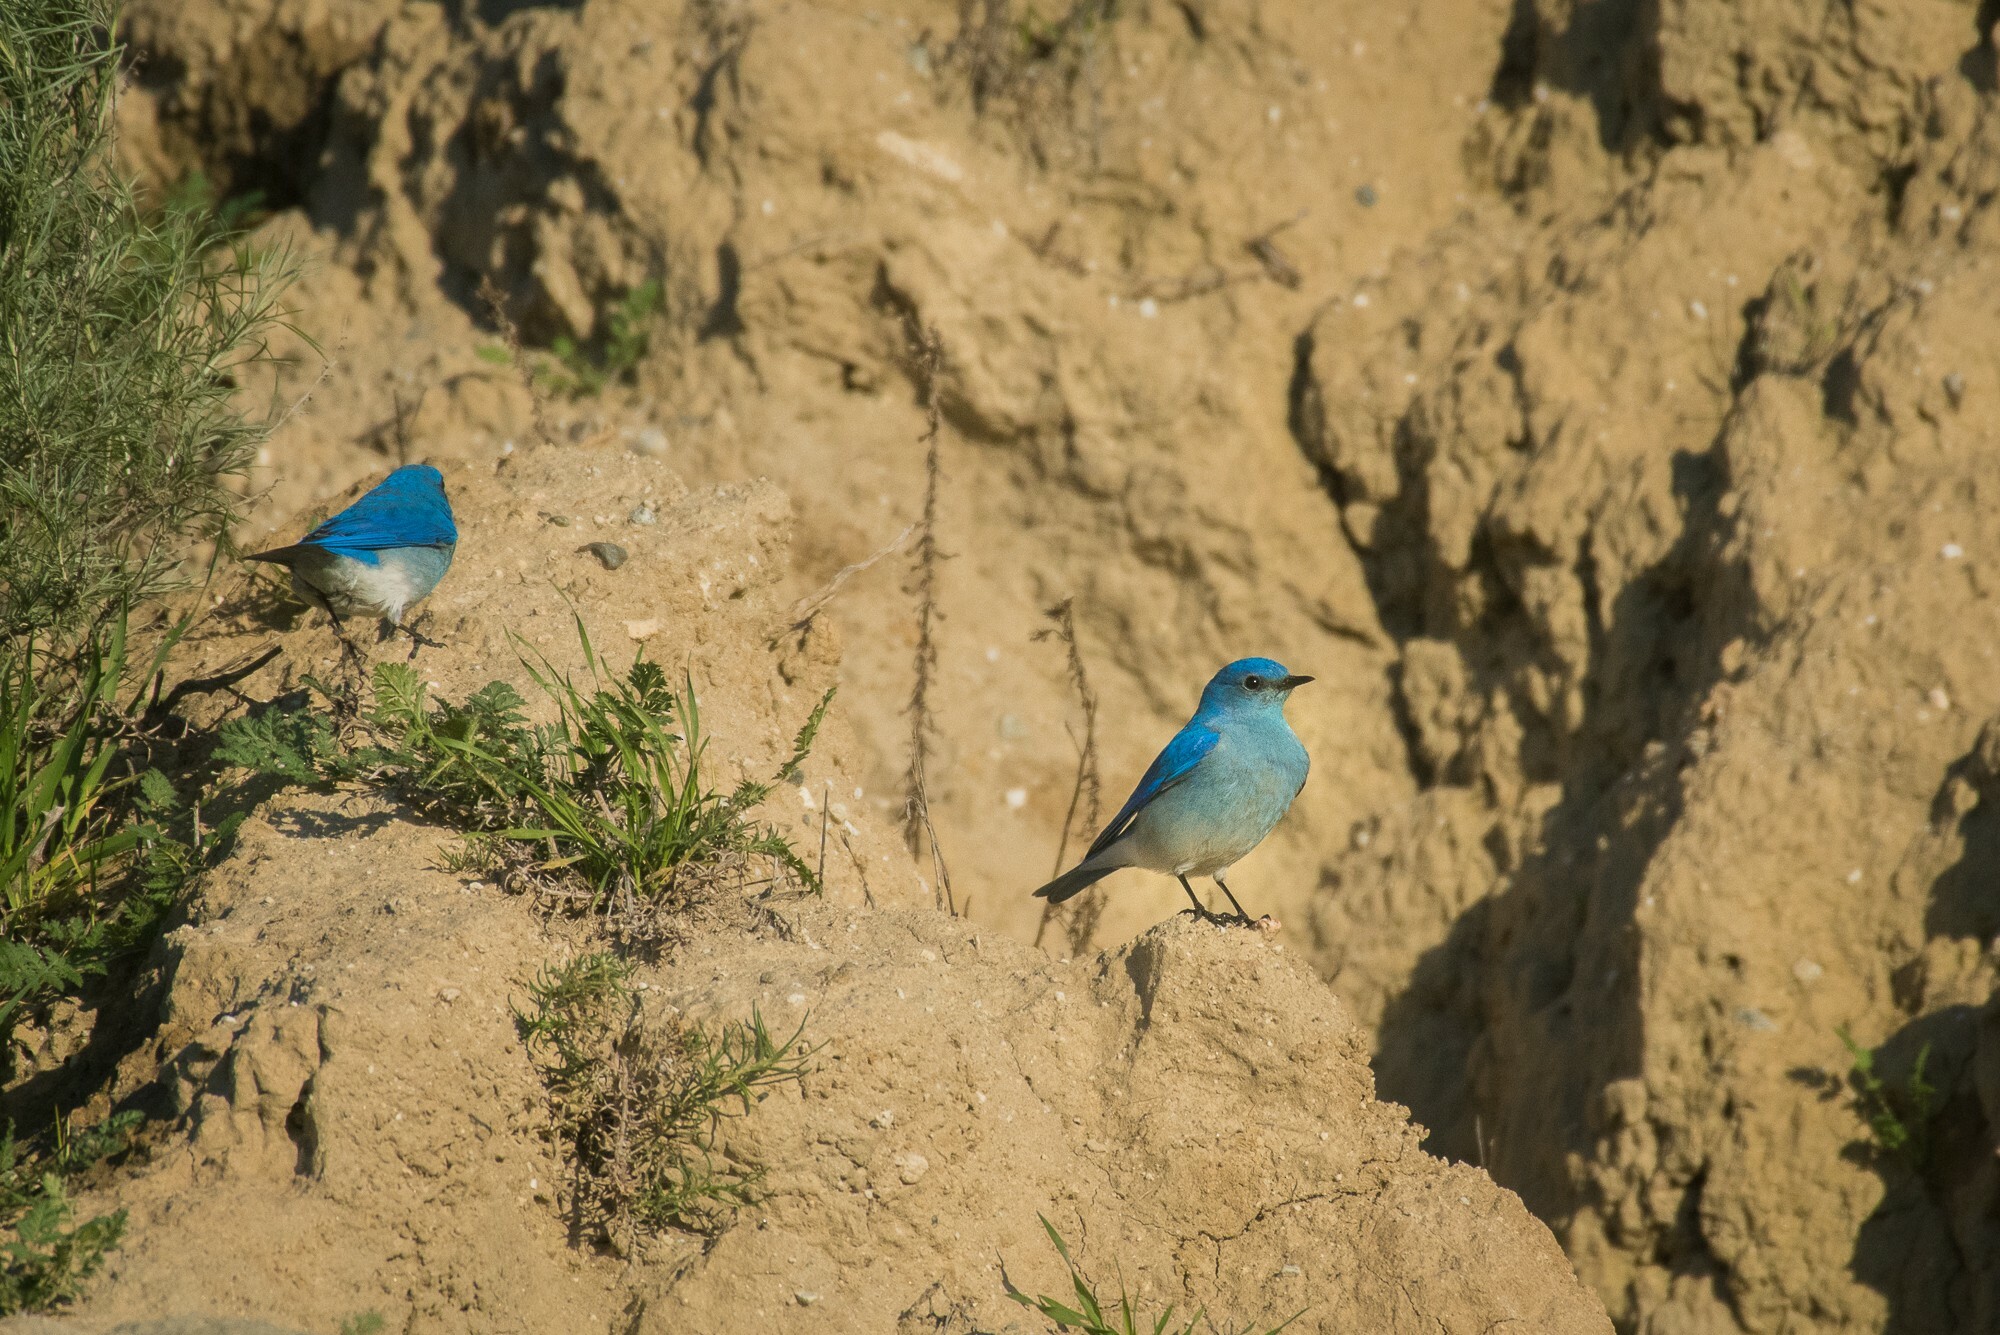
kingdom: Animalia
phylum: Chordata
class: Aves
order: Passeriformes
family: Turdidae
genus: Sialia
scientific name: Sialia currucoides
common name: Mountain bluebird
